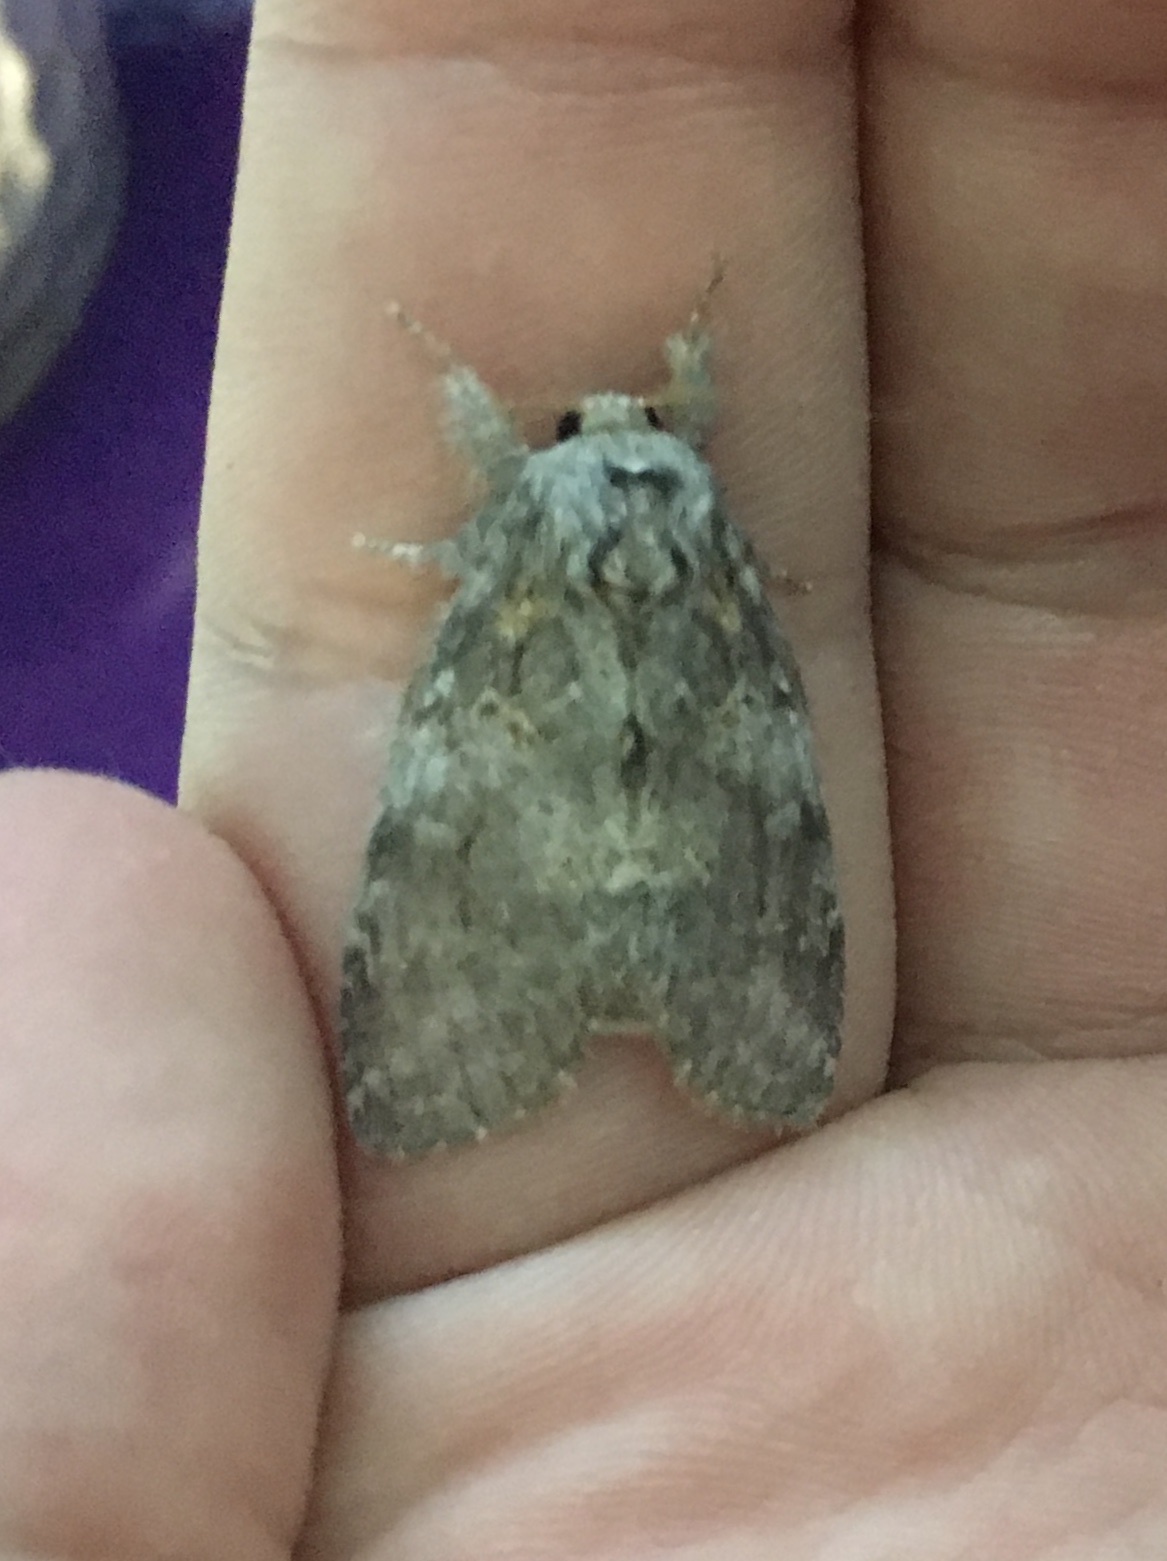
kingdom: Animalia
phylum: Arthropoda
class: Insecta
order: Lepidoptera
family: Notodontidae
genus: Peridea
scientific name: Peridea angulosa
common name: Angulose prominent
